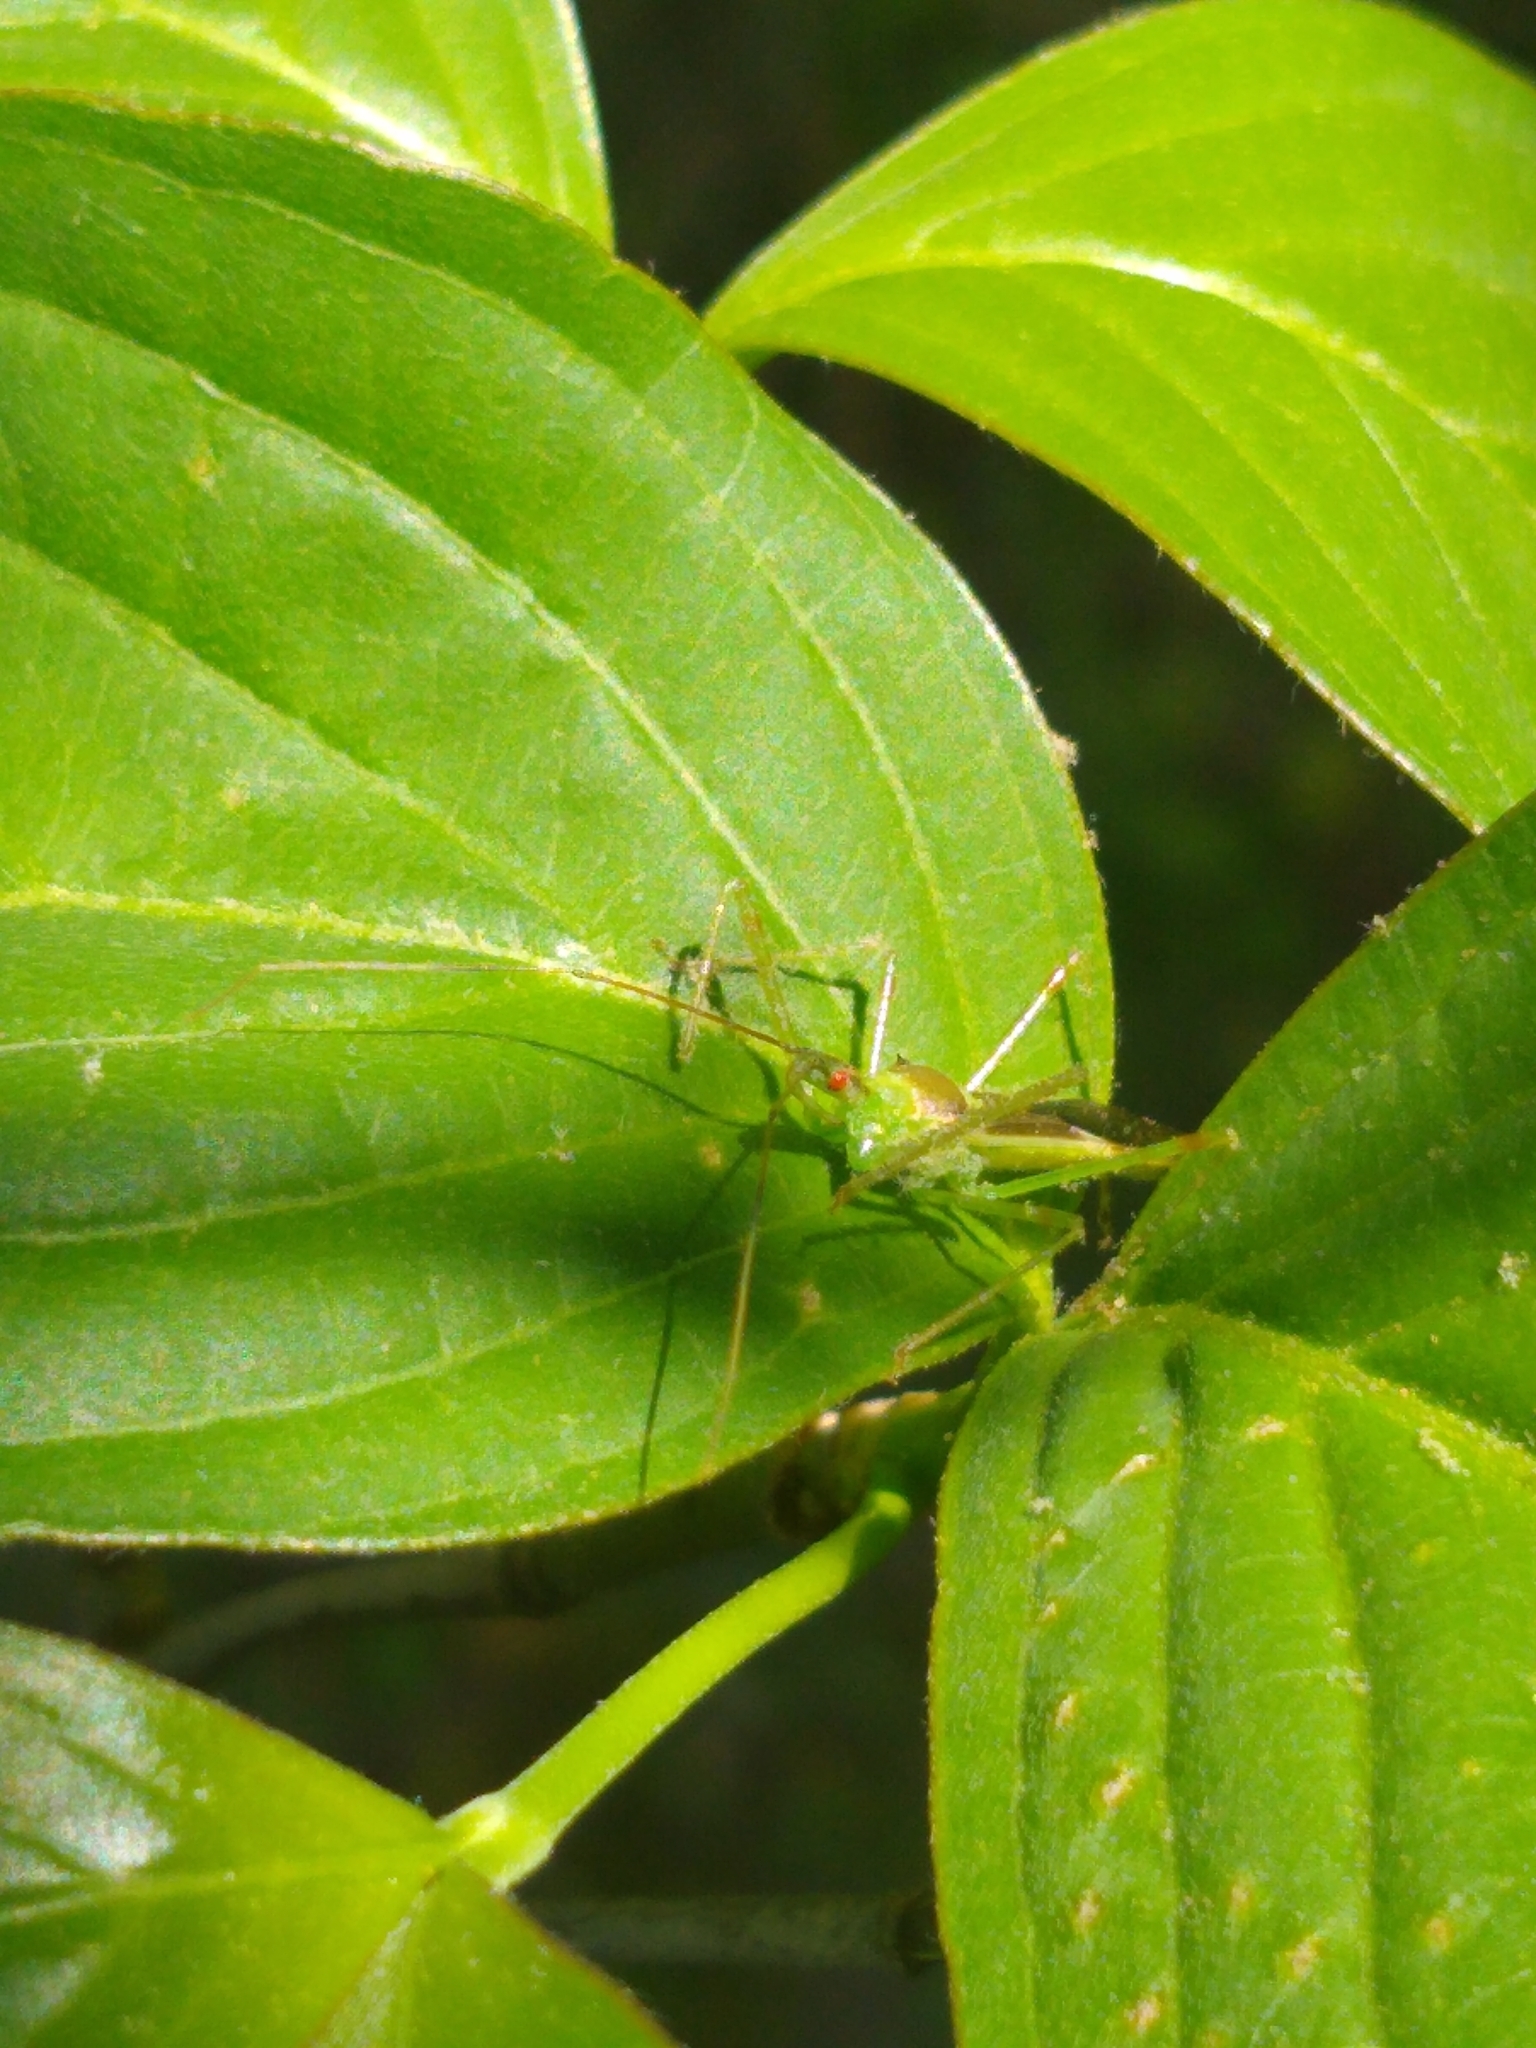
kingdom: Animalia
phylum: Arthropoda
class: Insecta
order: Hemiptera
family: Reduviidae
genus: Zelus
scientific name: Zelus luridus
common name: Pale green assassin bug
